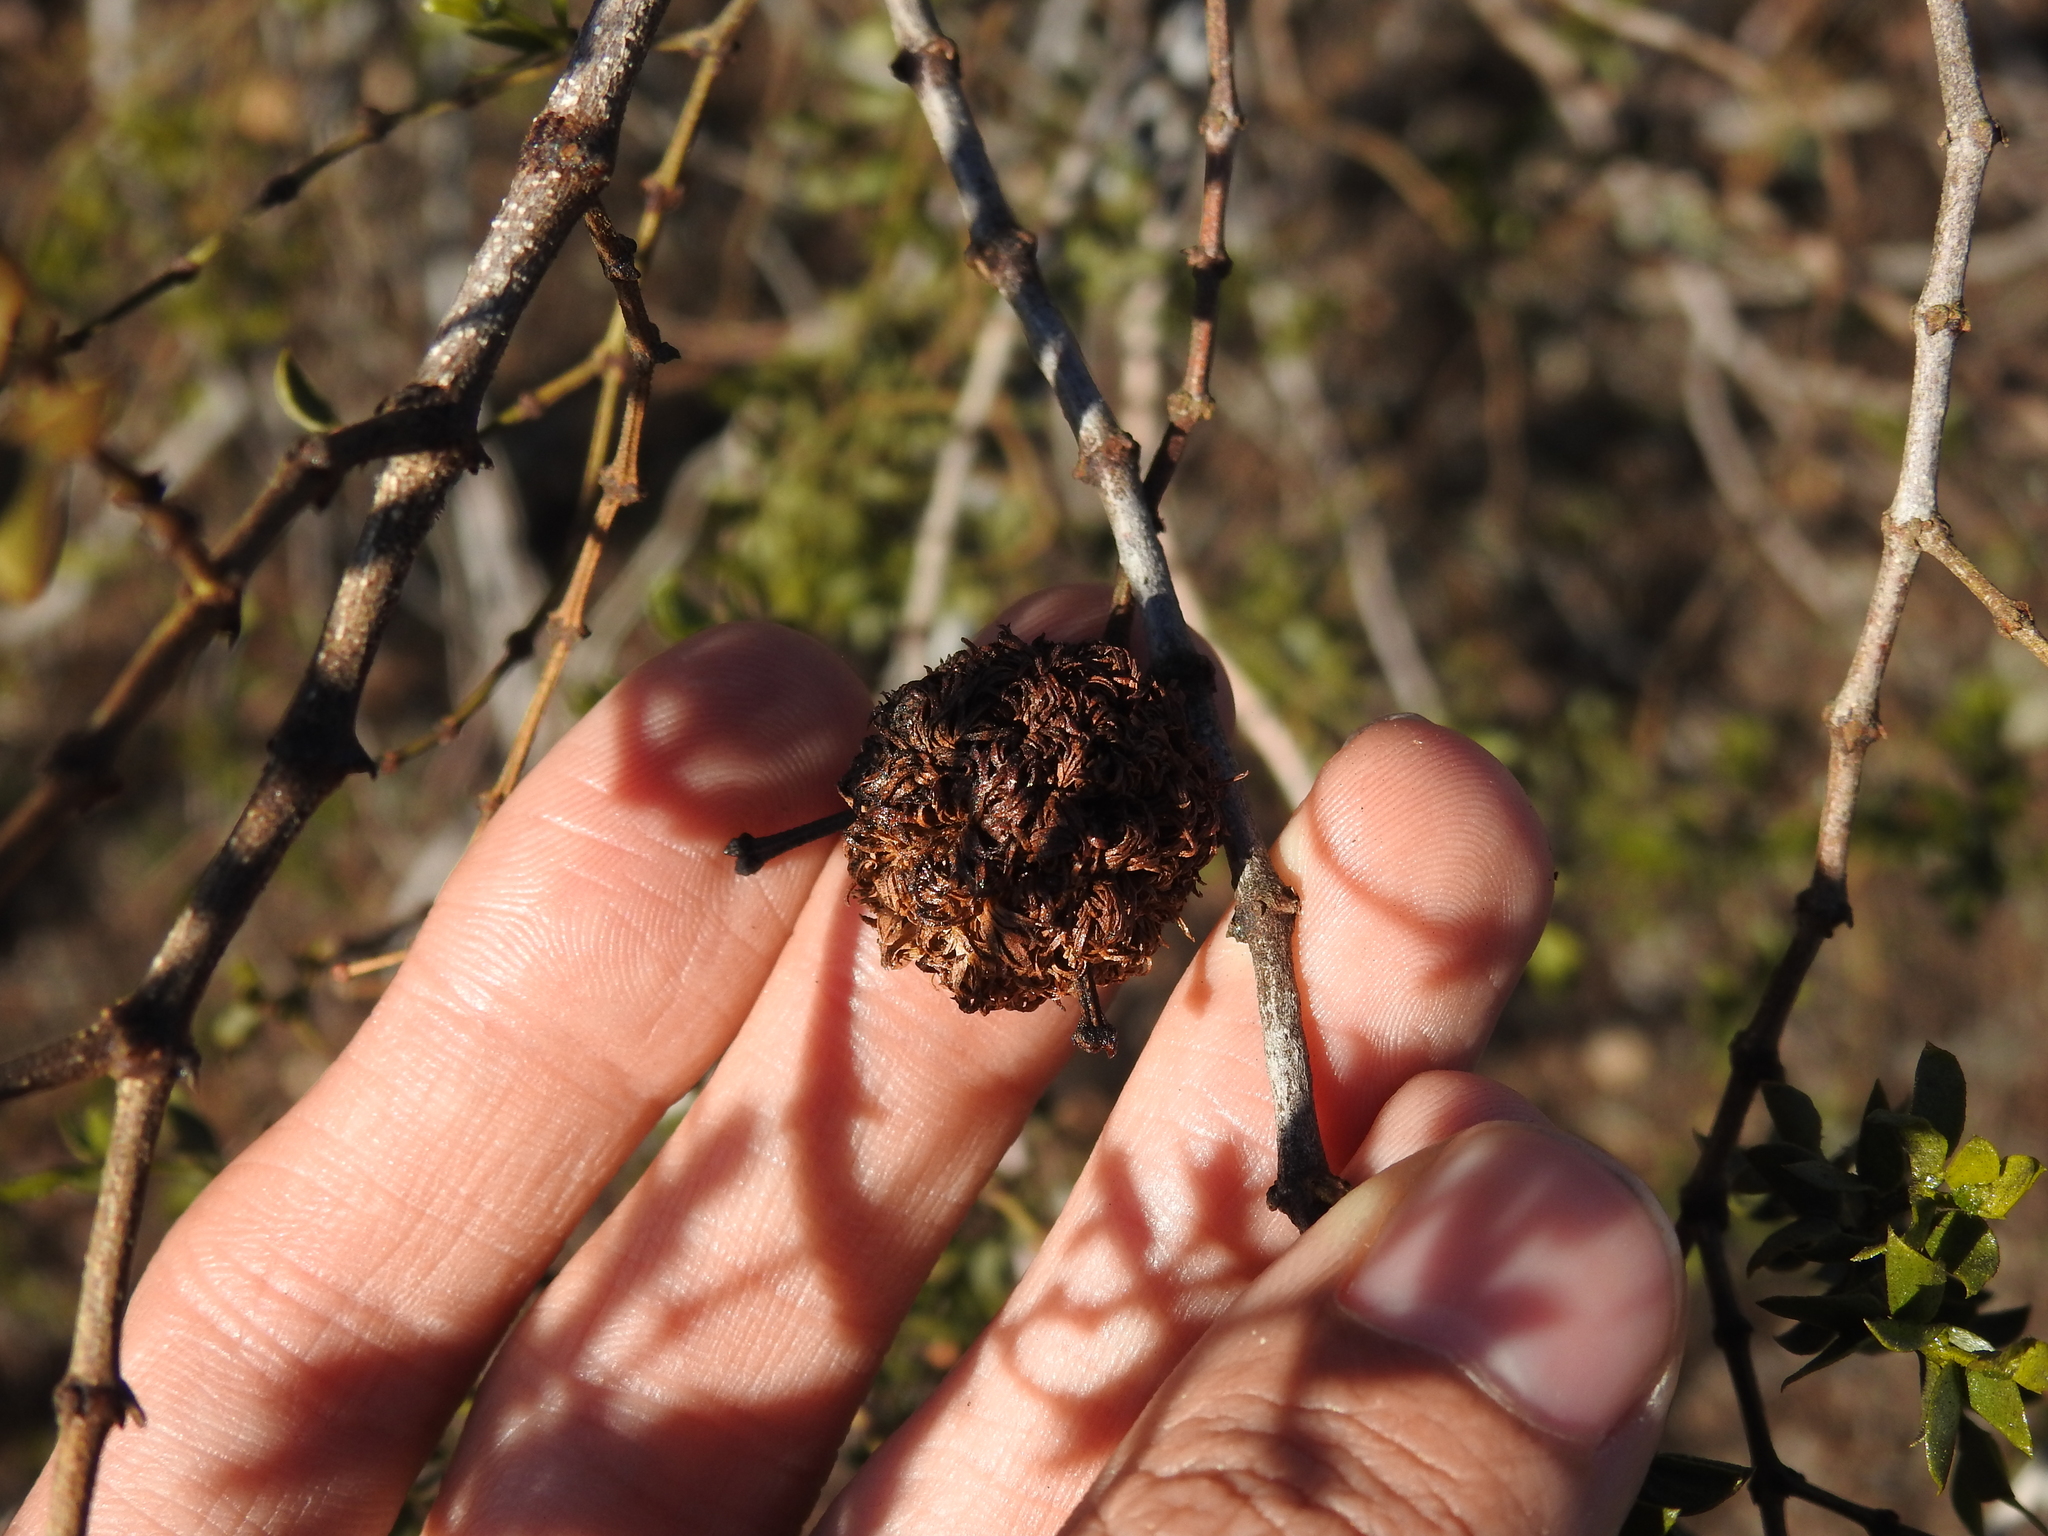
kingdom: Animalia
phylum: Arthropoda
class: Insecta
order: Diptera
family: Cecidomyiidae
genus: Asphondylia
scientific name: Asphondylia auripila
